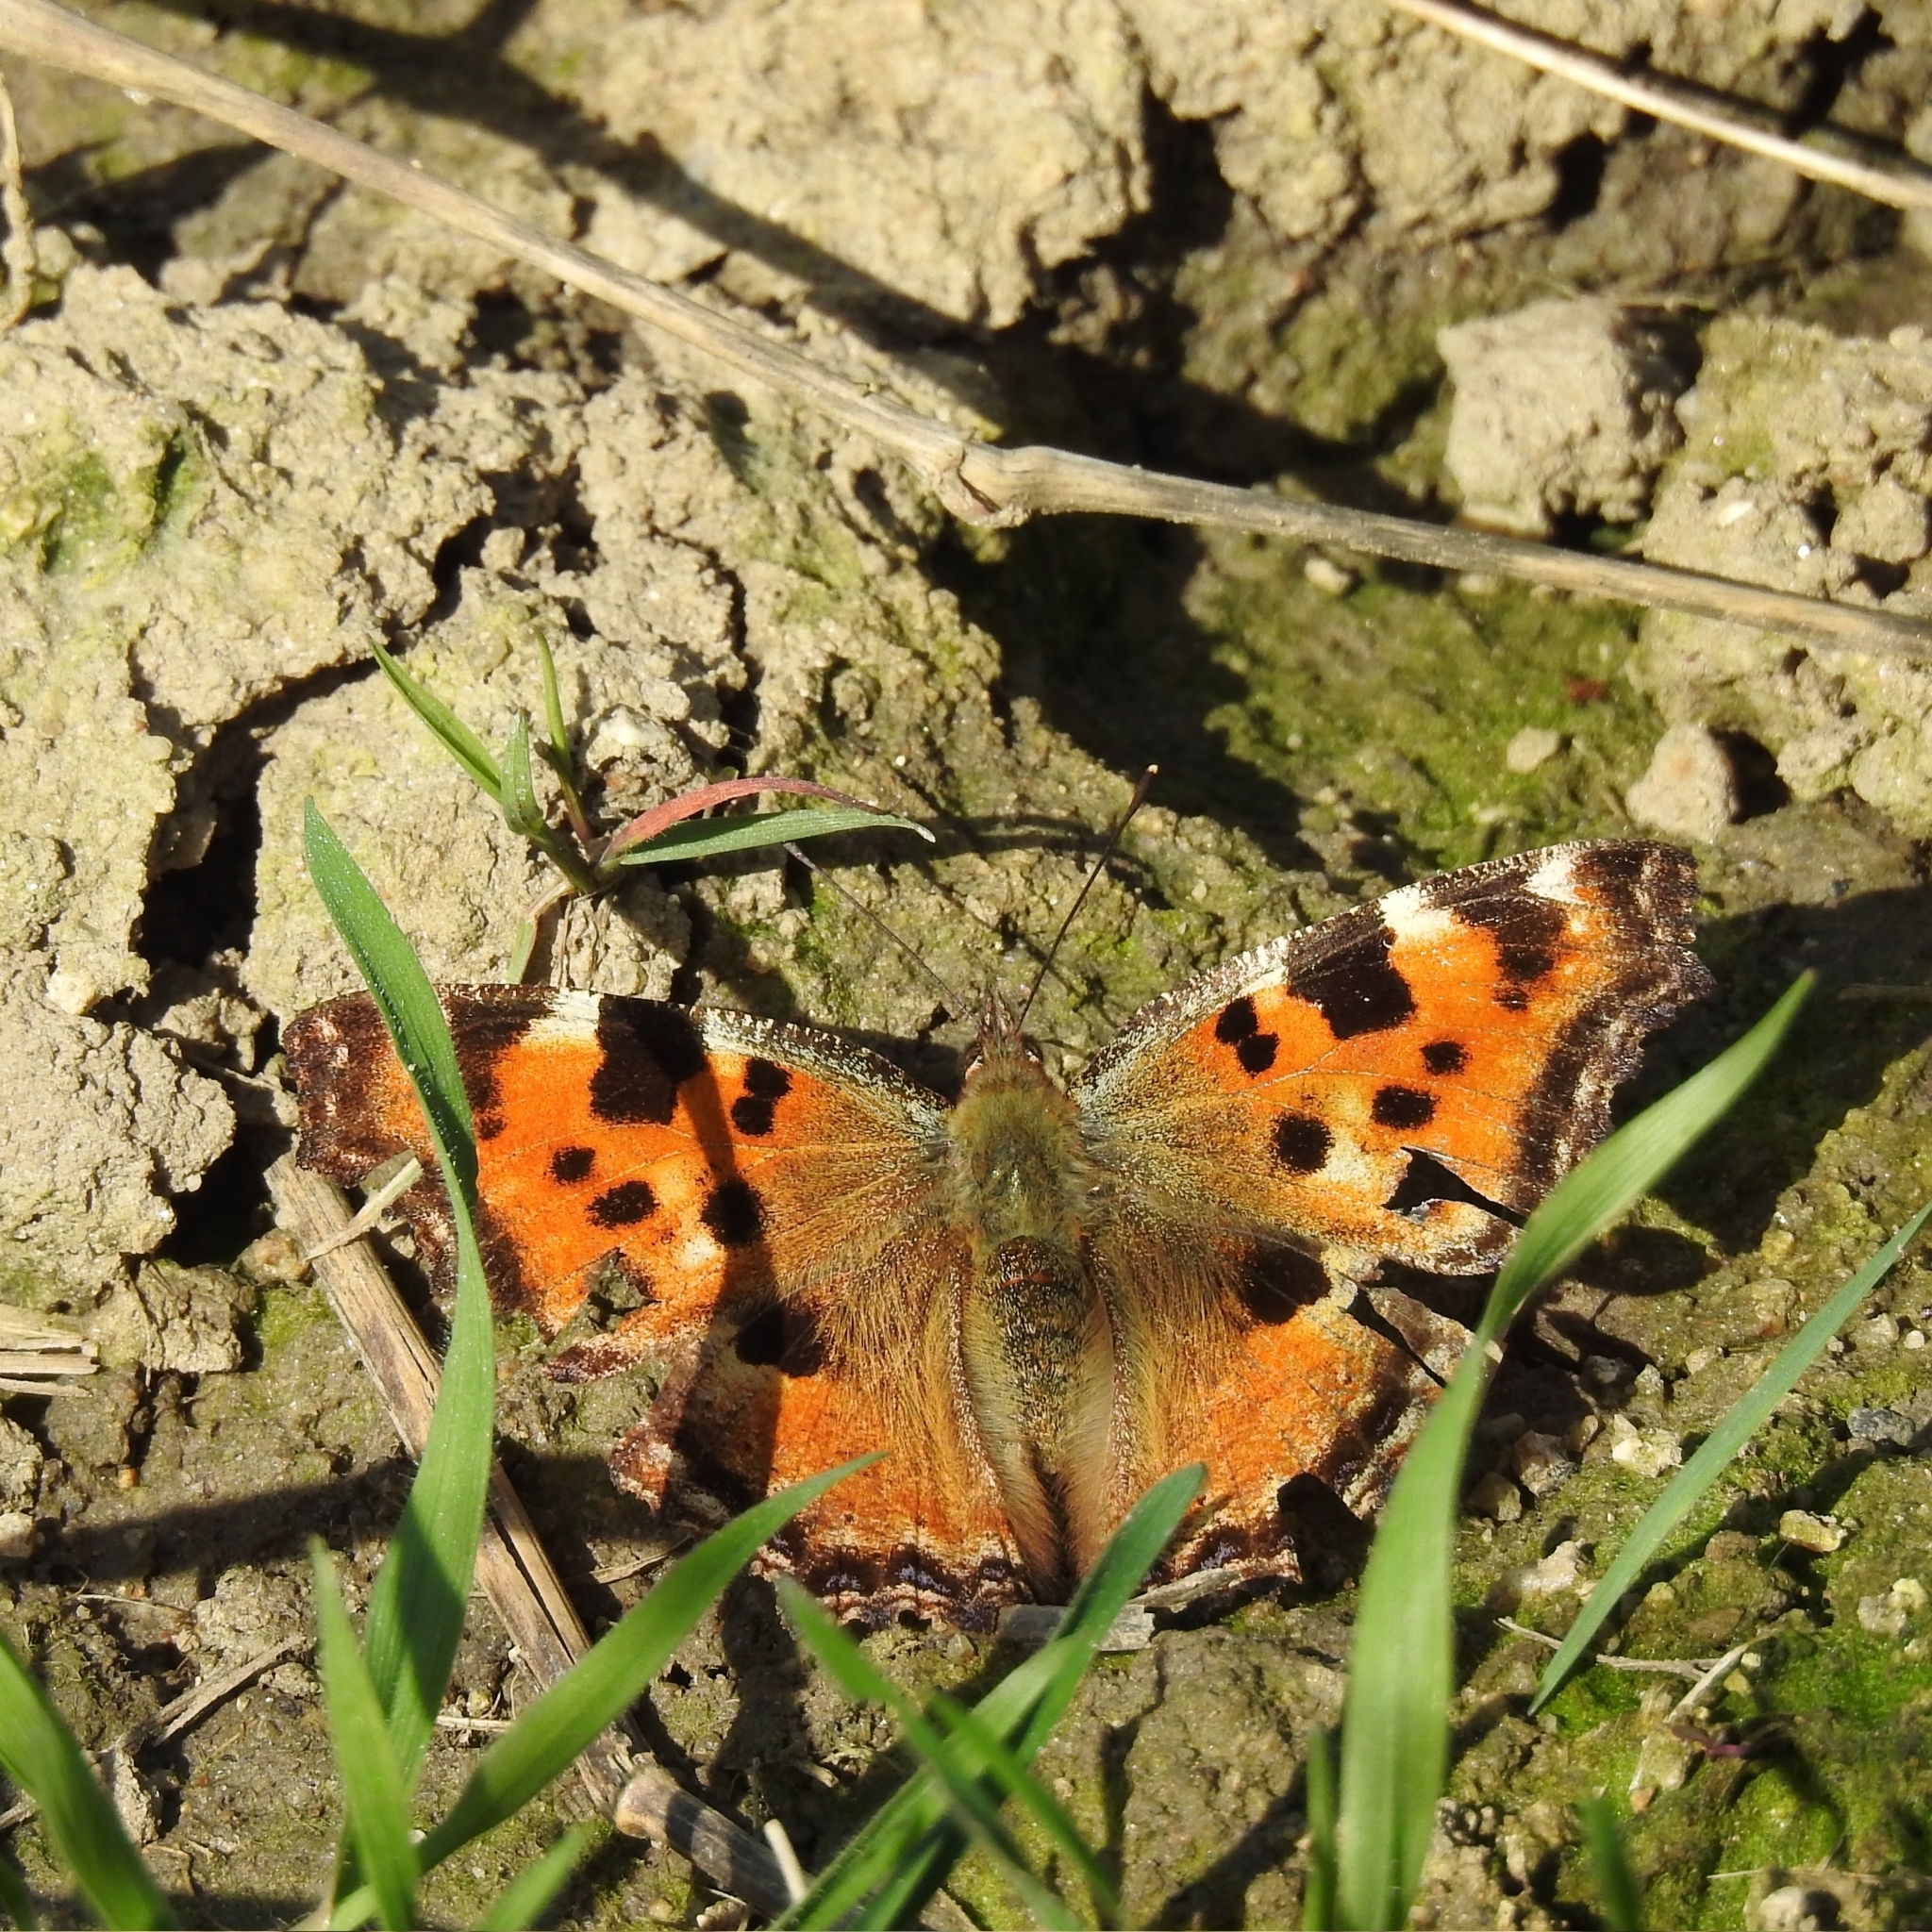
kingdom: Animalia
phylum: Arthropoda
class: Insecta
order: Lepidoptera
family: Nymphalidae
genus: Nymphalis
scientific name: Nymphalis polychloros
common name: Large tortoiseshell
